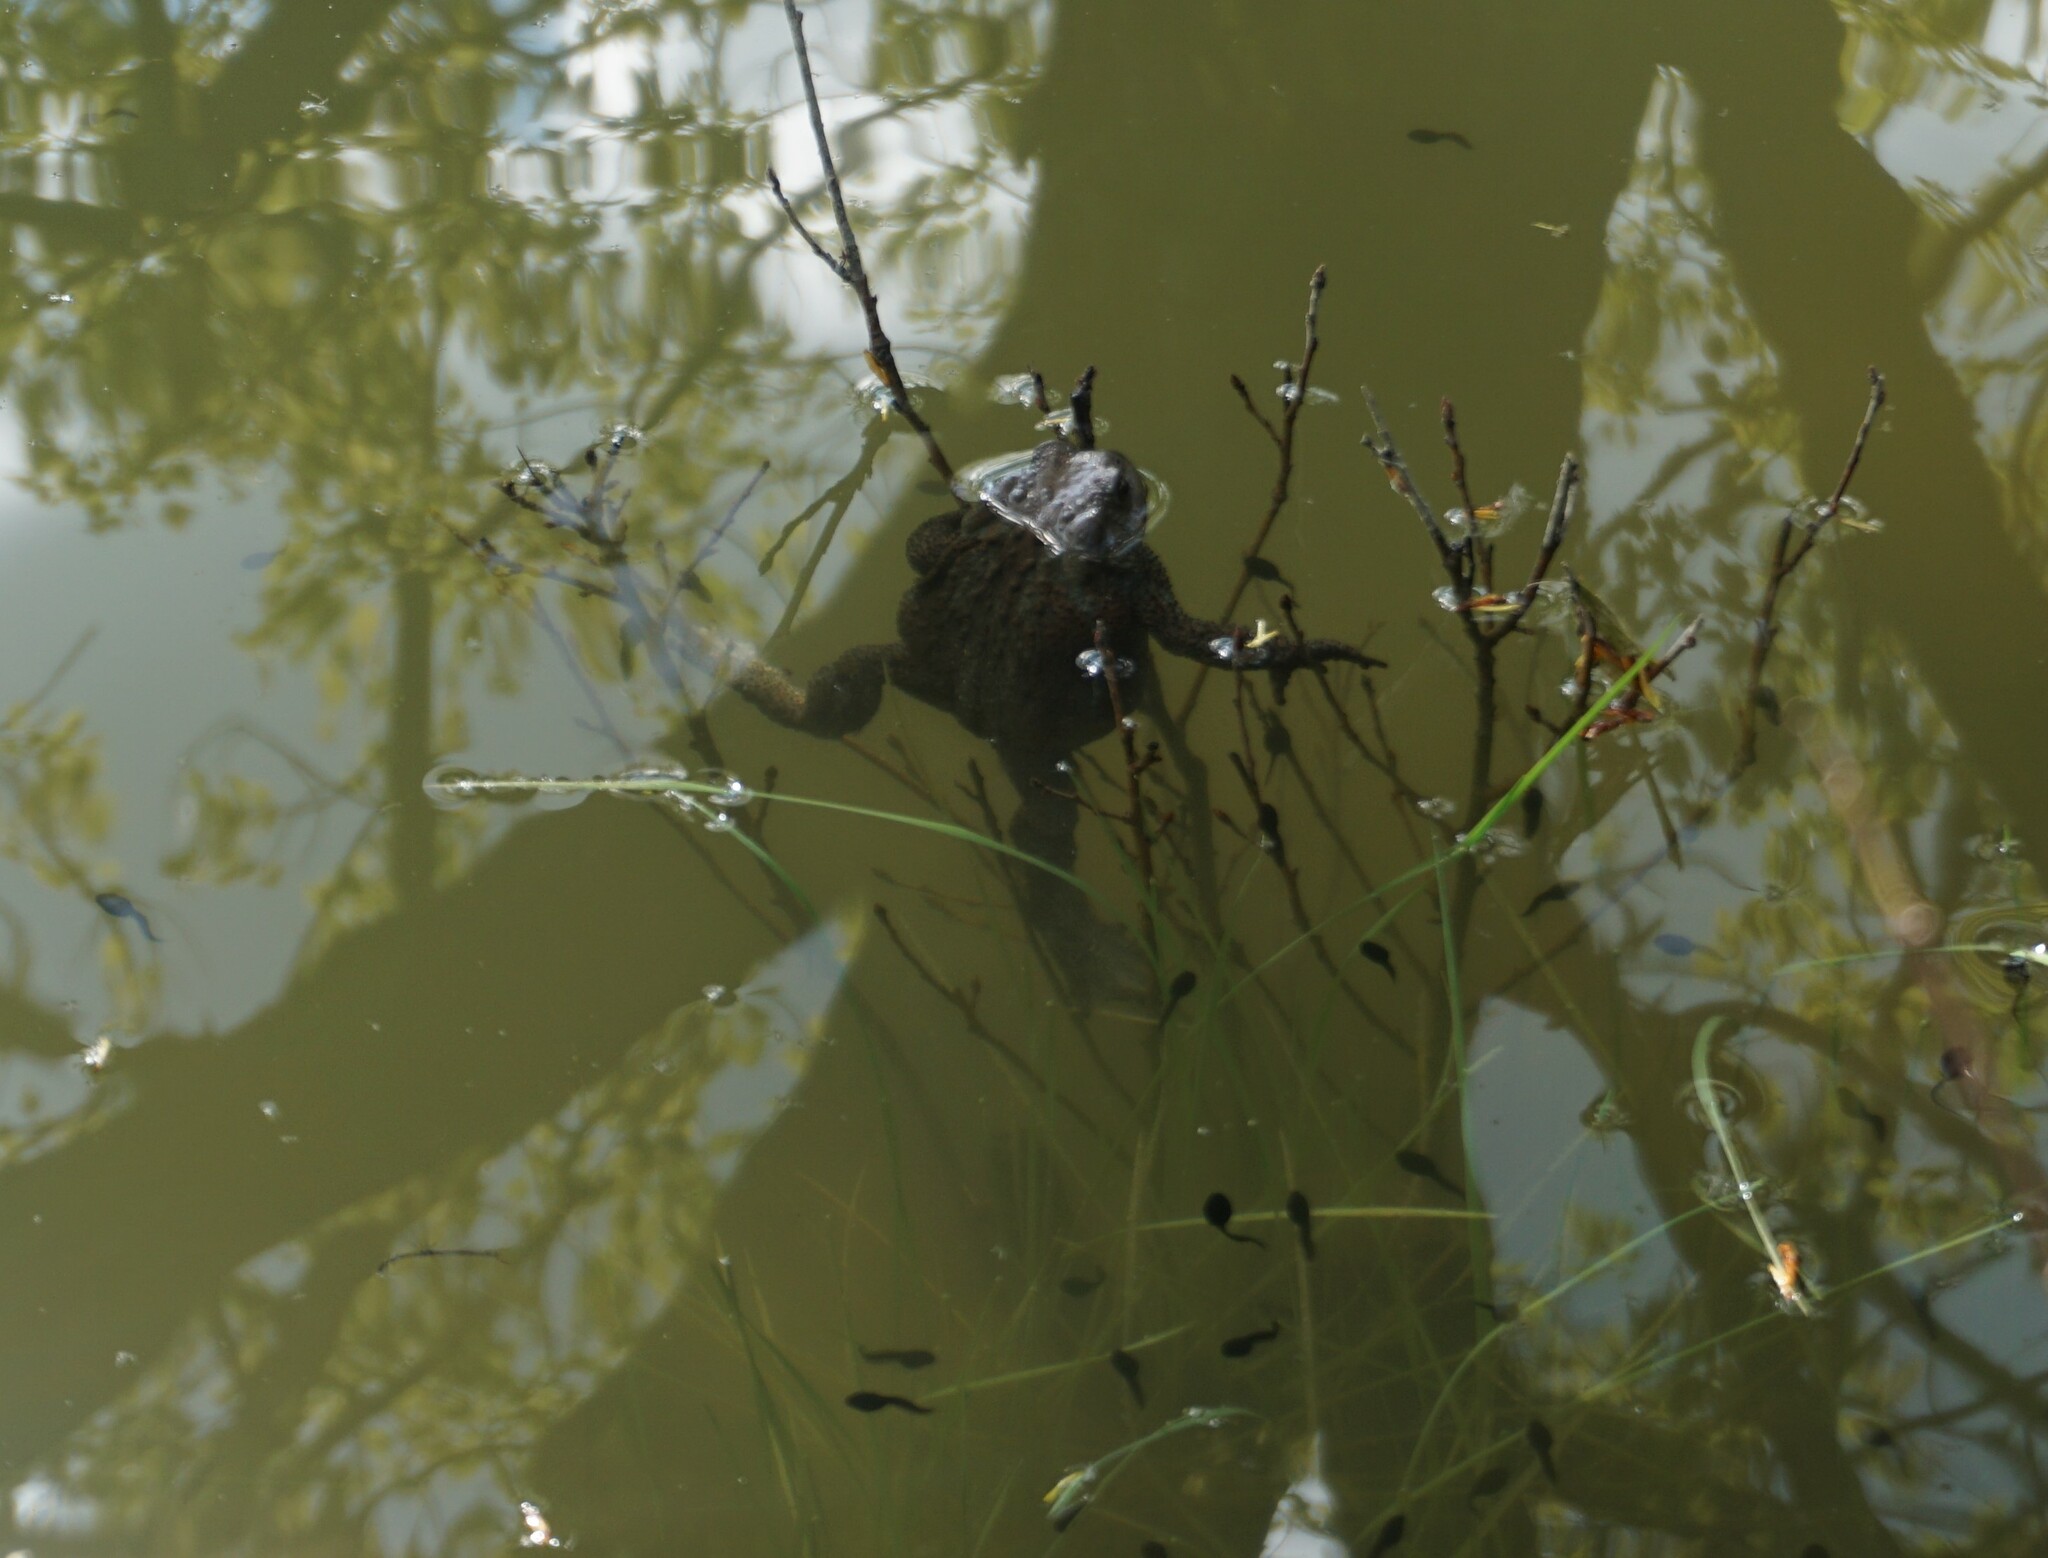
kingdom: Animalia
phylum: Chordata
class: Amphibia
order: Anura
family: Bufonidae
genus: Bufo
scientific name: Bufo bufo
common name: Common toad
